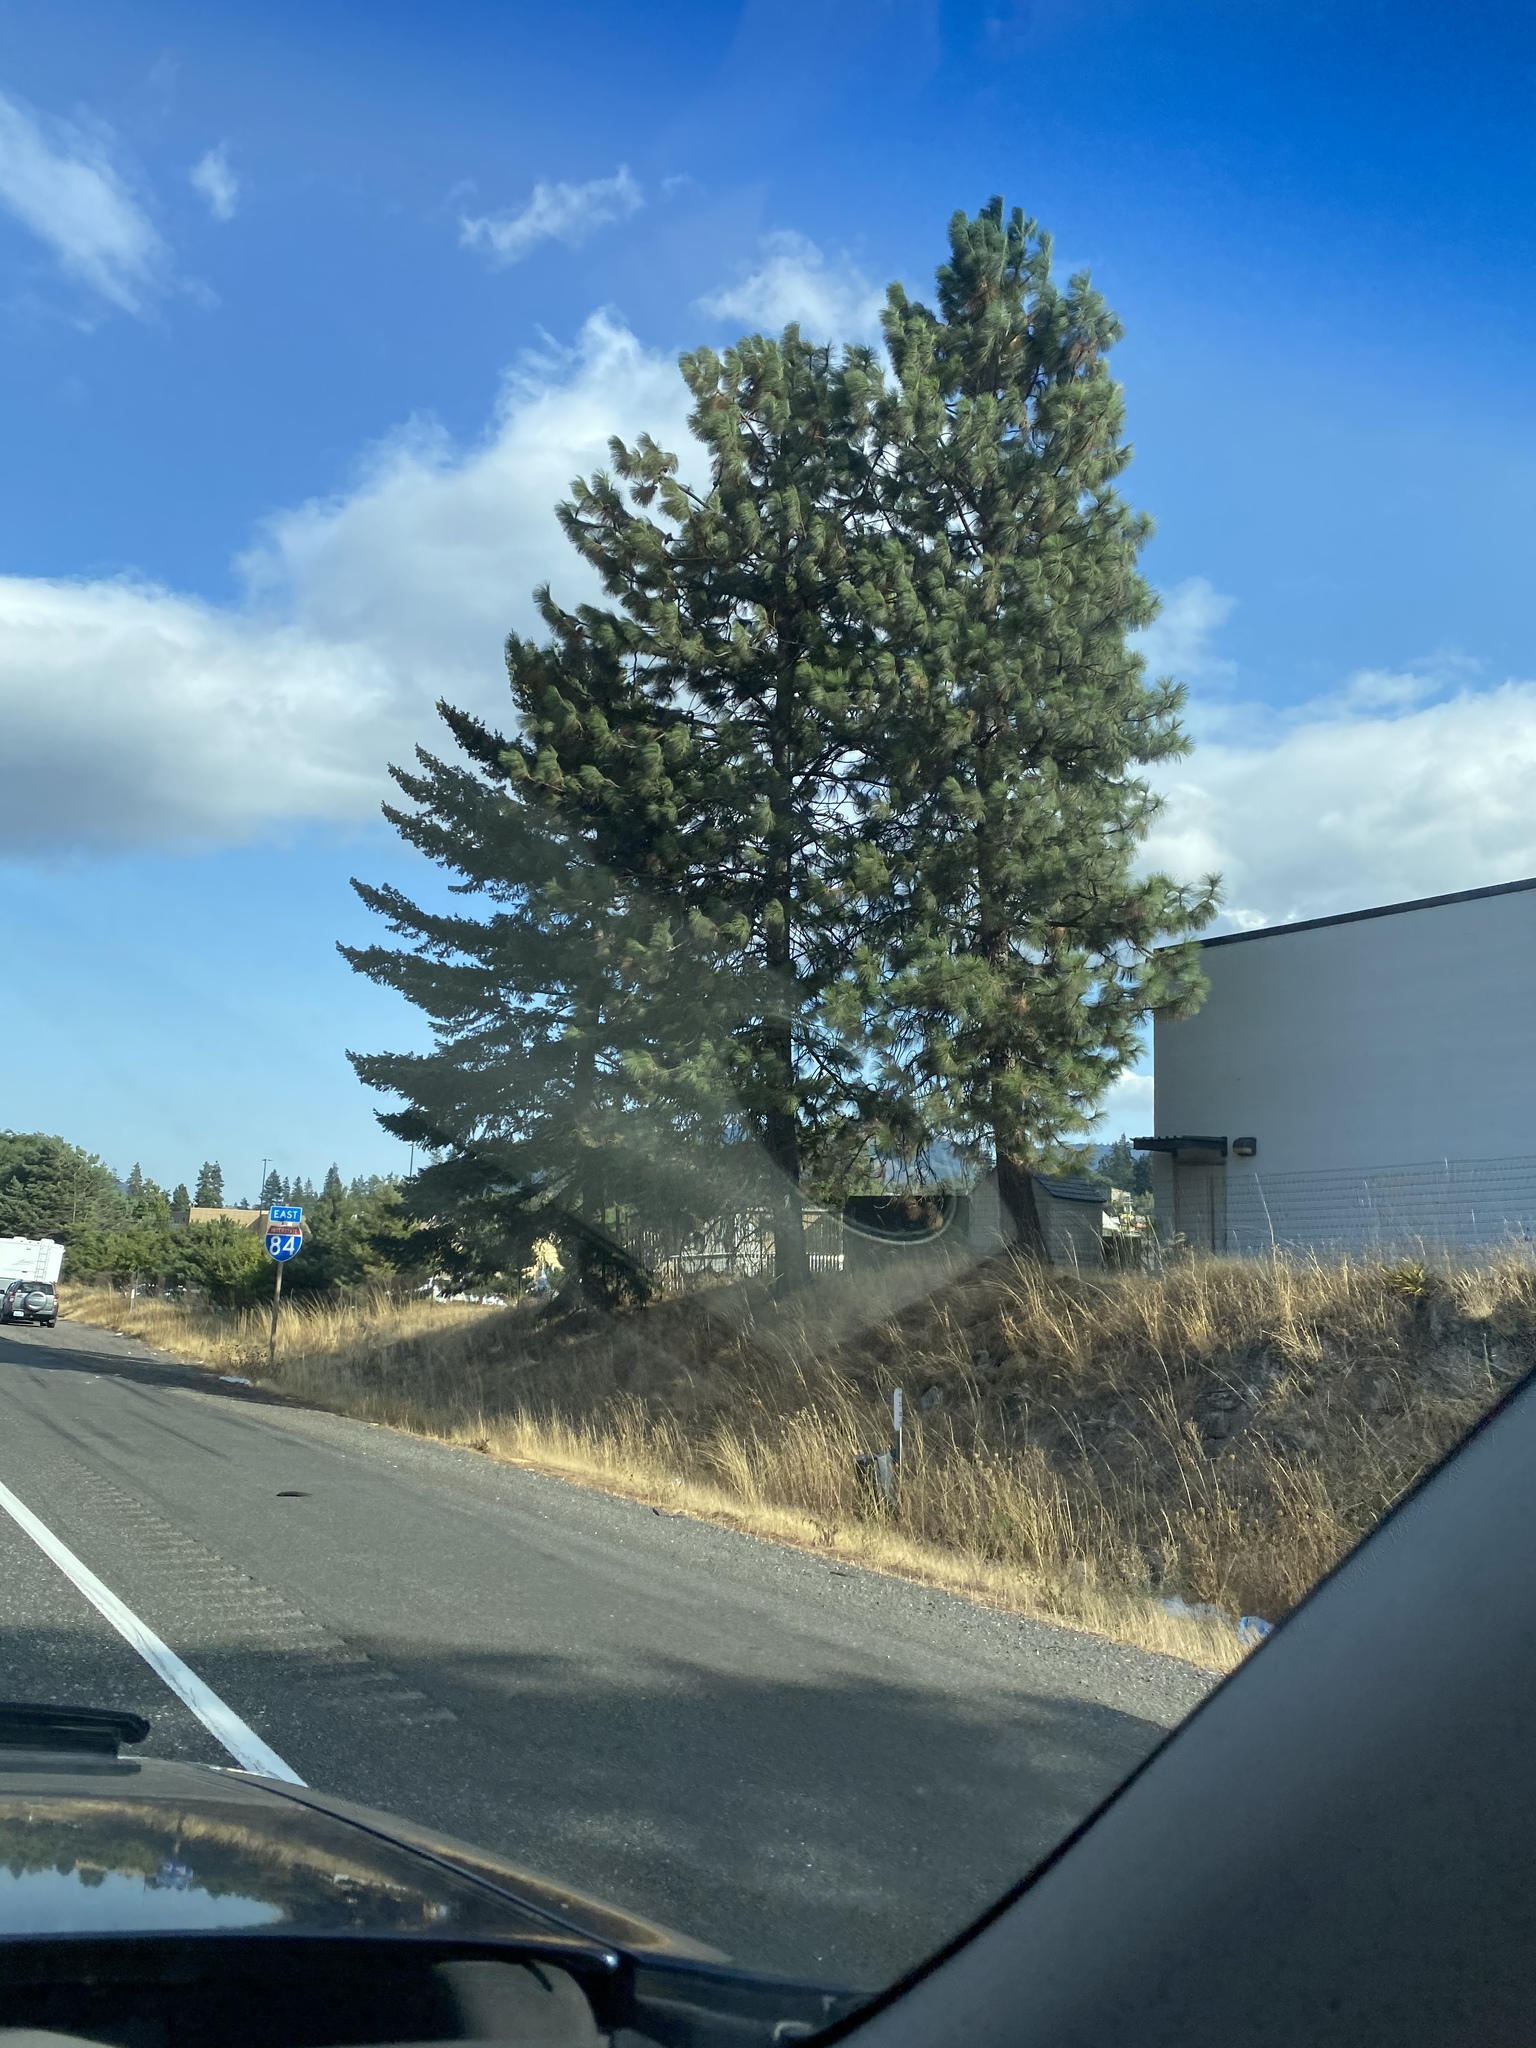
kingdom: Plantae
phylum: Tracheophyta
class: Pinopsida
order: Pinales
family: Pinaceae
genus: Pinus
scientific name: Pinus ponderosa
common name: Western yellow-pine
